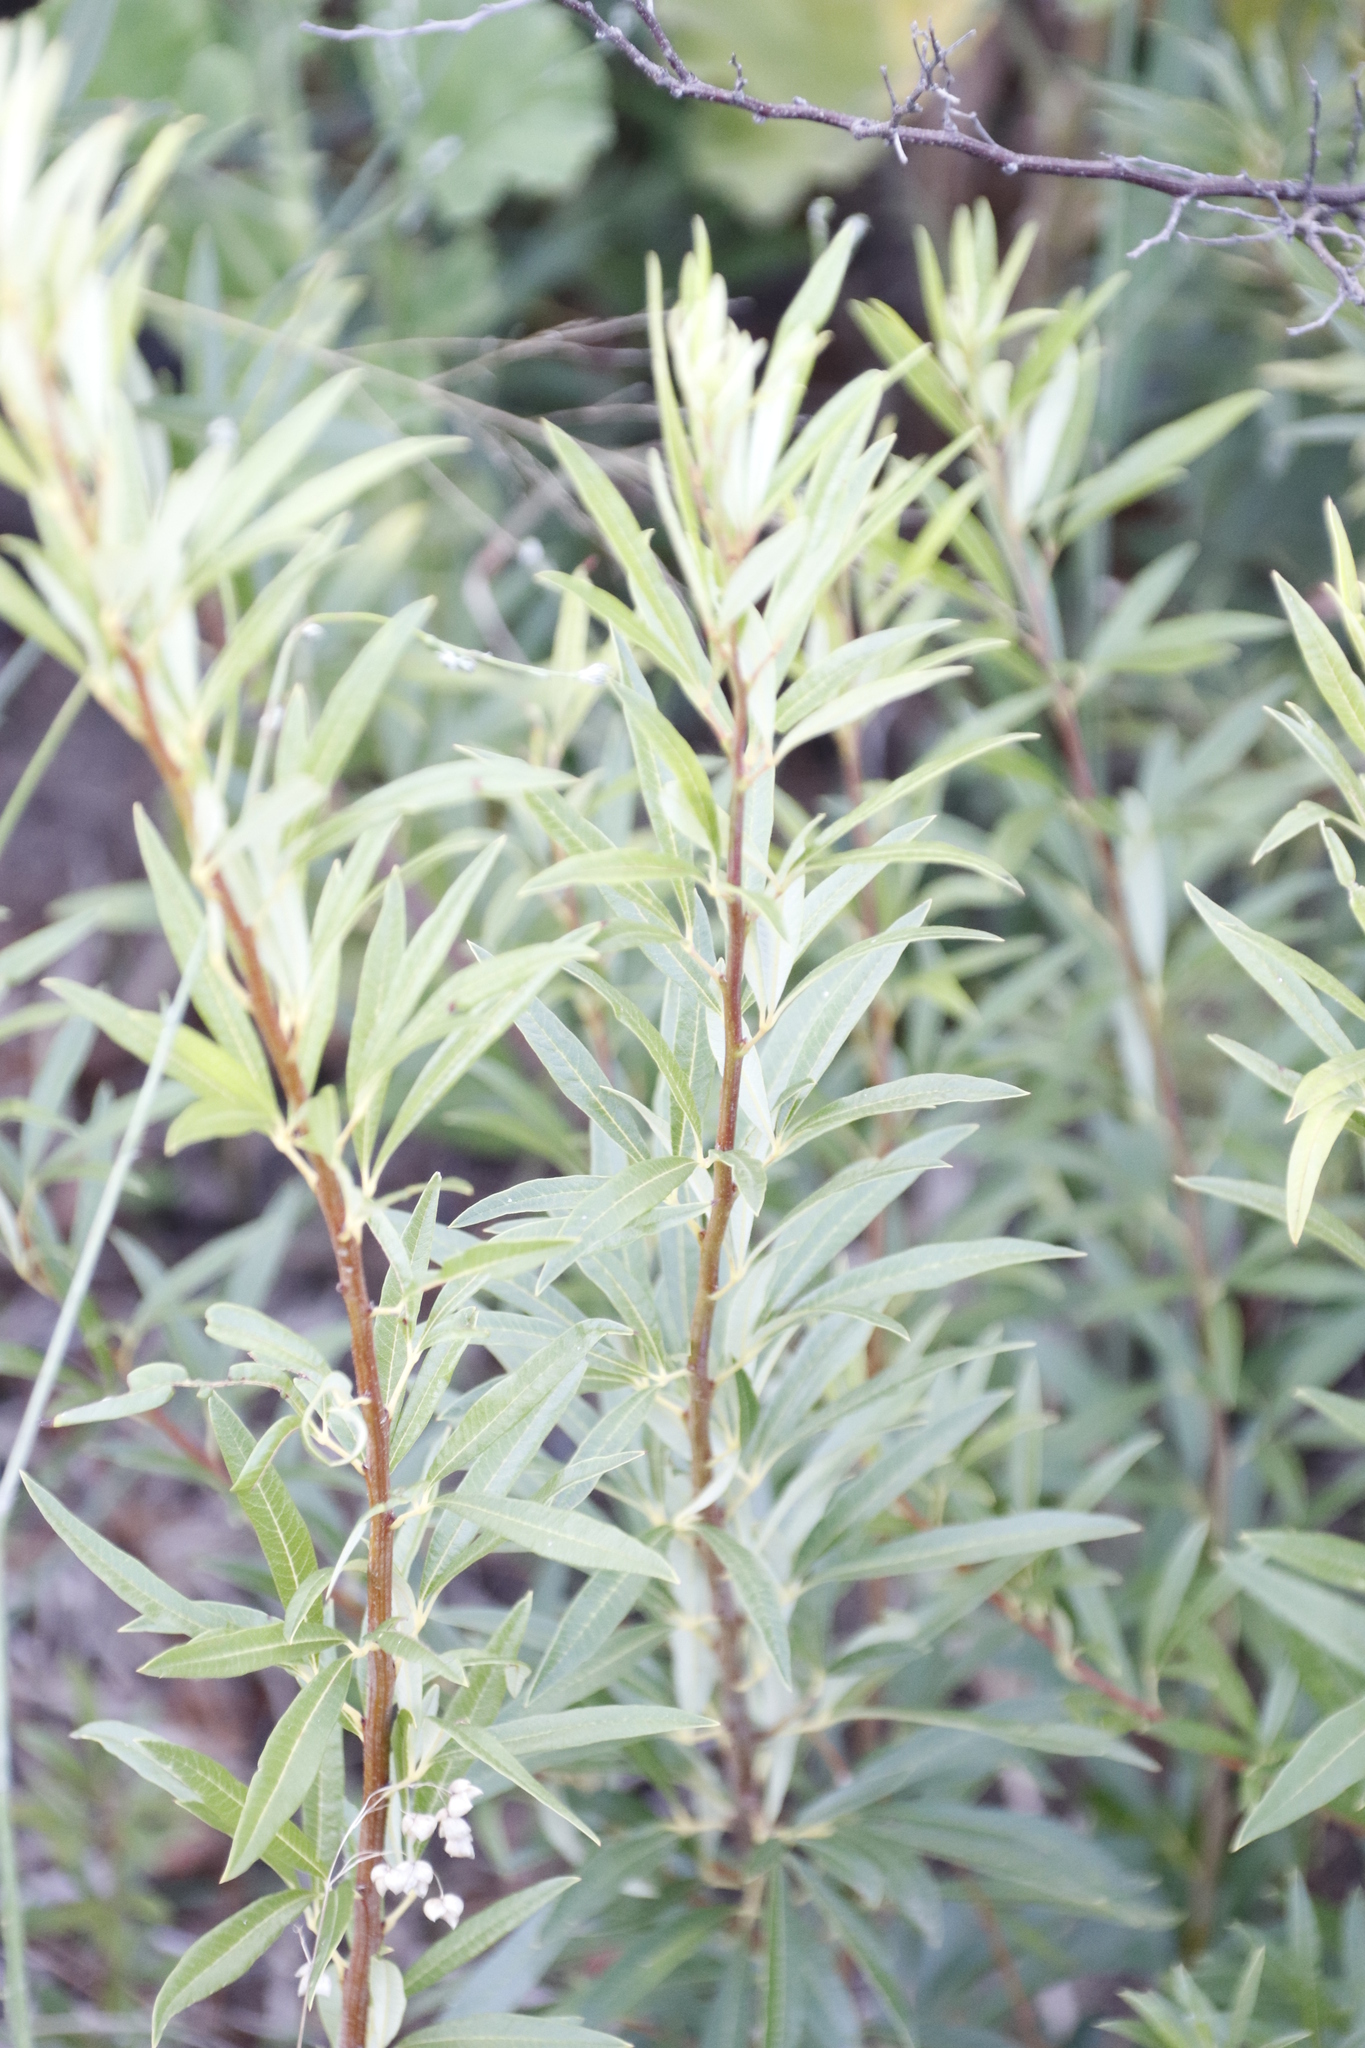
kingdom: Plantae
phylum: Tracheophyta
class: Magnoliopsida
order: Sapindales
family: Anacardiaceae
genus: Searsia
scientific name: Searsia angustifolia
